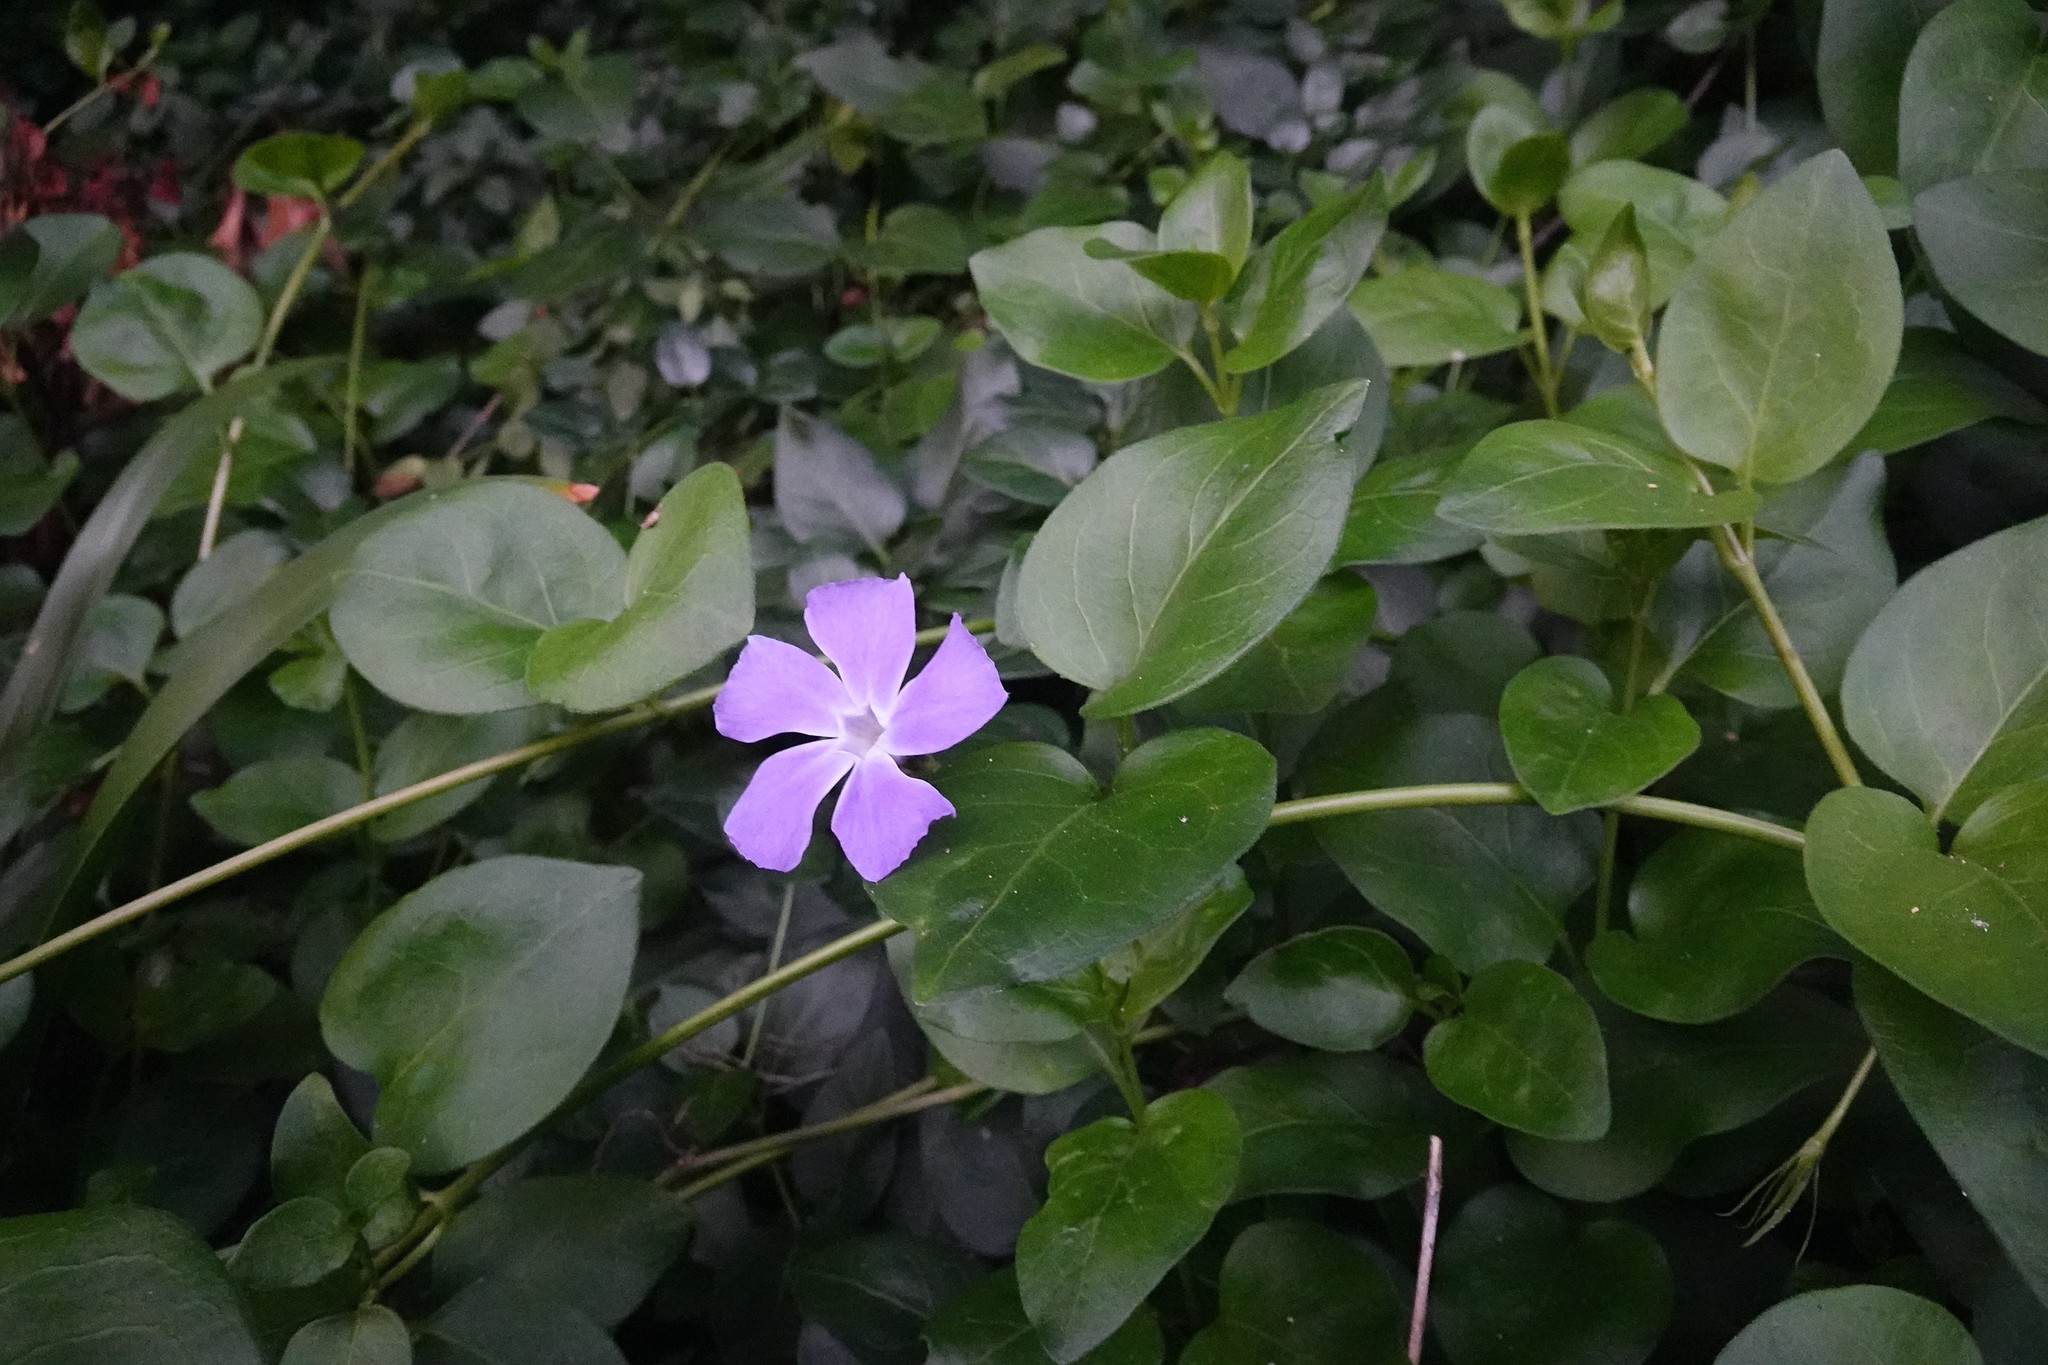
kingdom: Plantae
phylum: Tracheophyta
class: Magnoliopsida
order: Gentianales
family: Apocynaceae
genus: Vinca
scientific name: Vinca major
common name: Greater periwinkle
